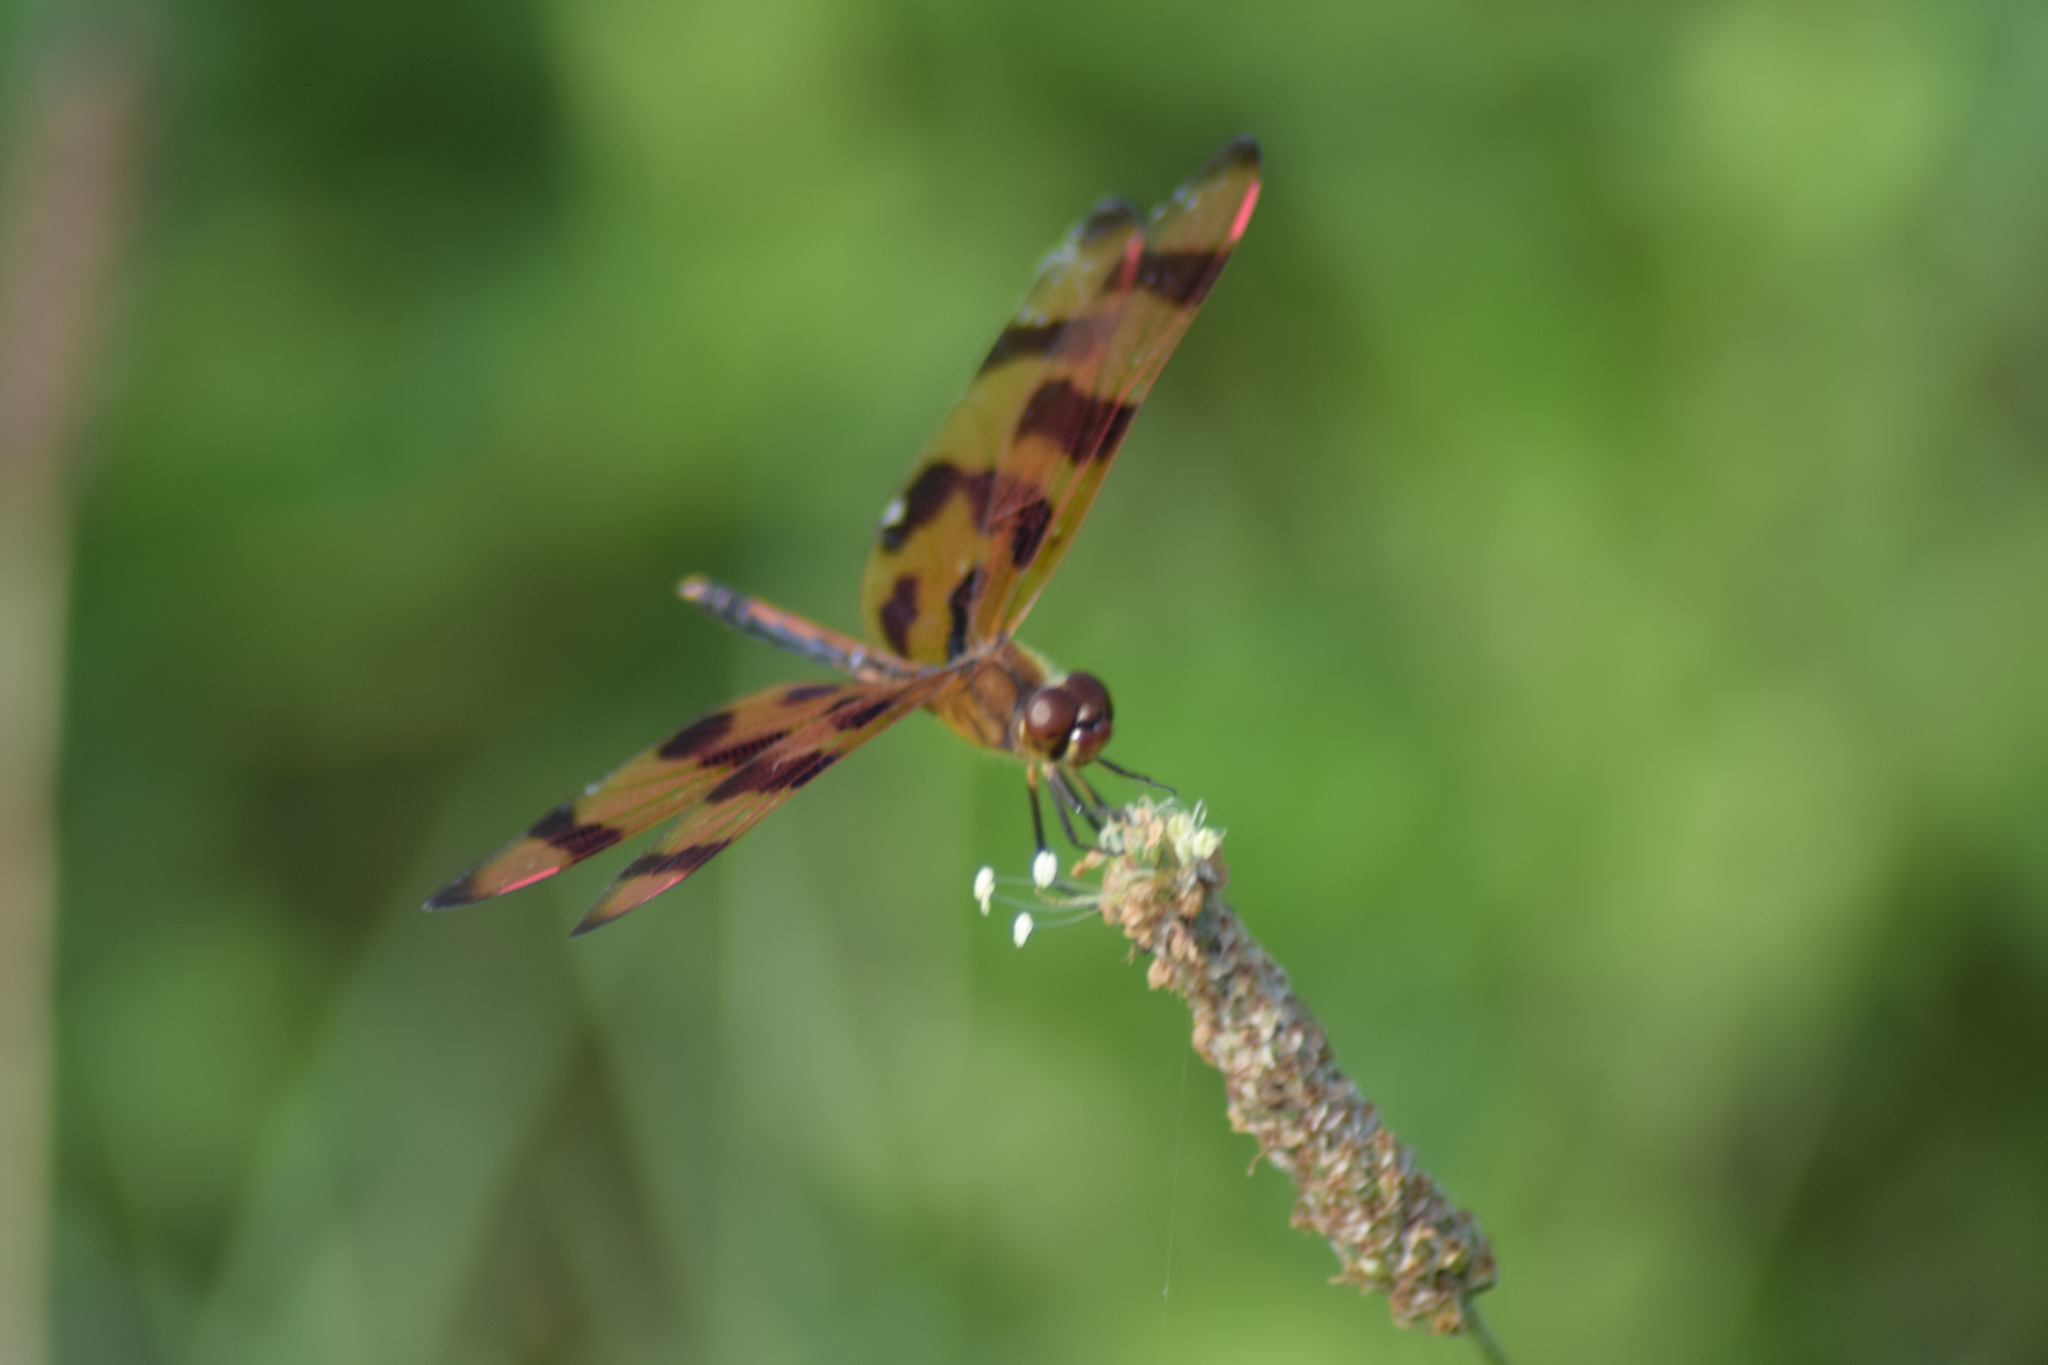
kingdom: Animalia
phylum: Arthropoda
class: Insecta
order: Odonata
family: Libellulidae
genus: Celithemis
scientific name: Celithemis eponina
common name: Halloween pennant
